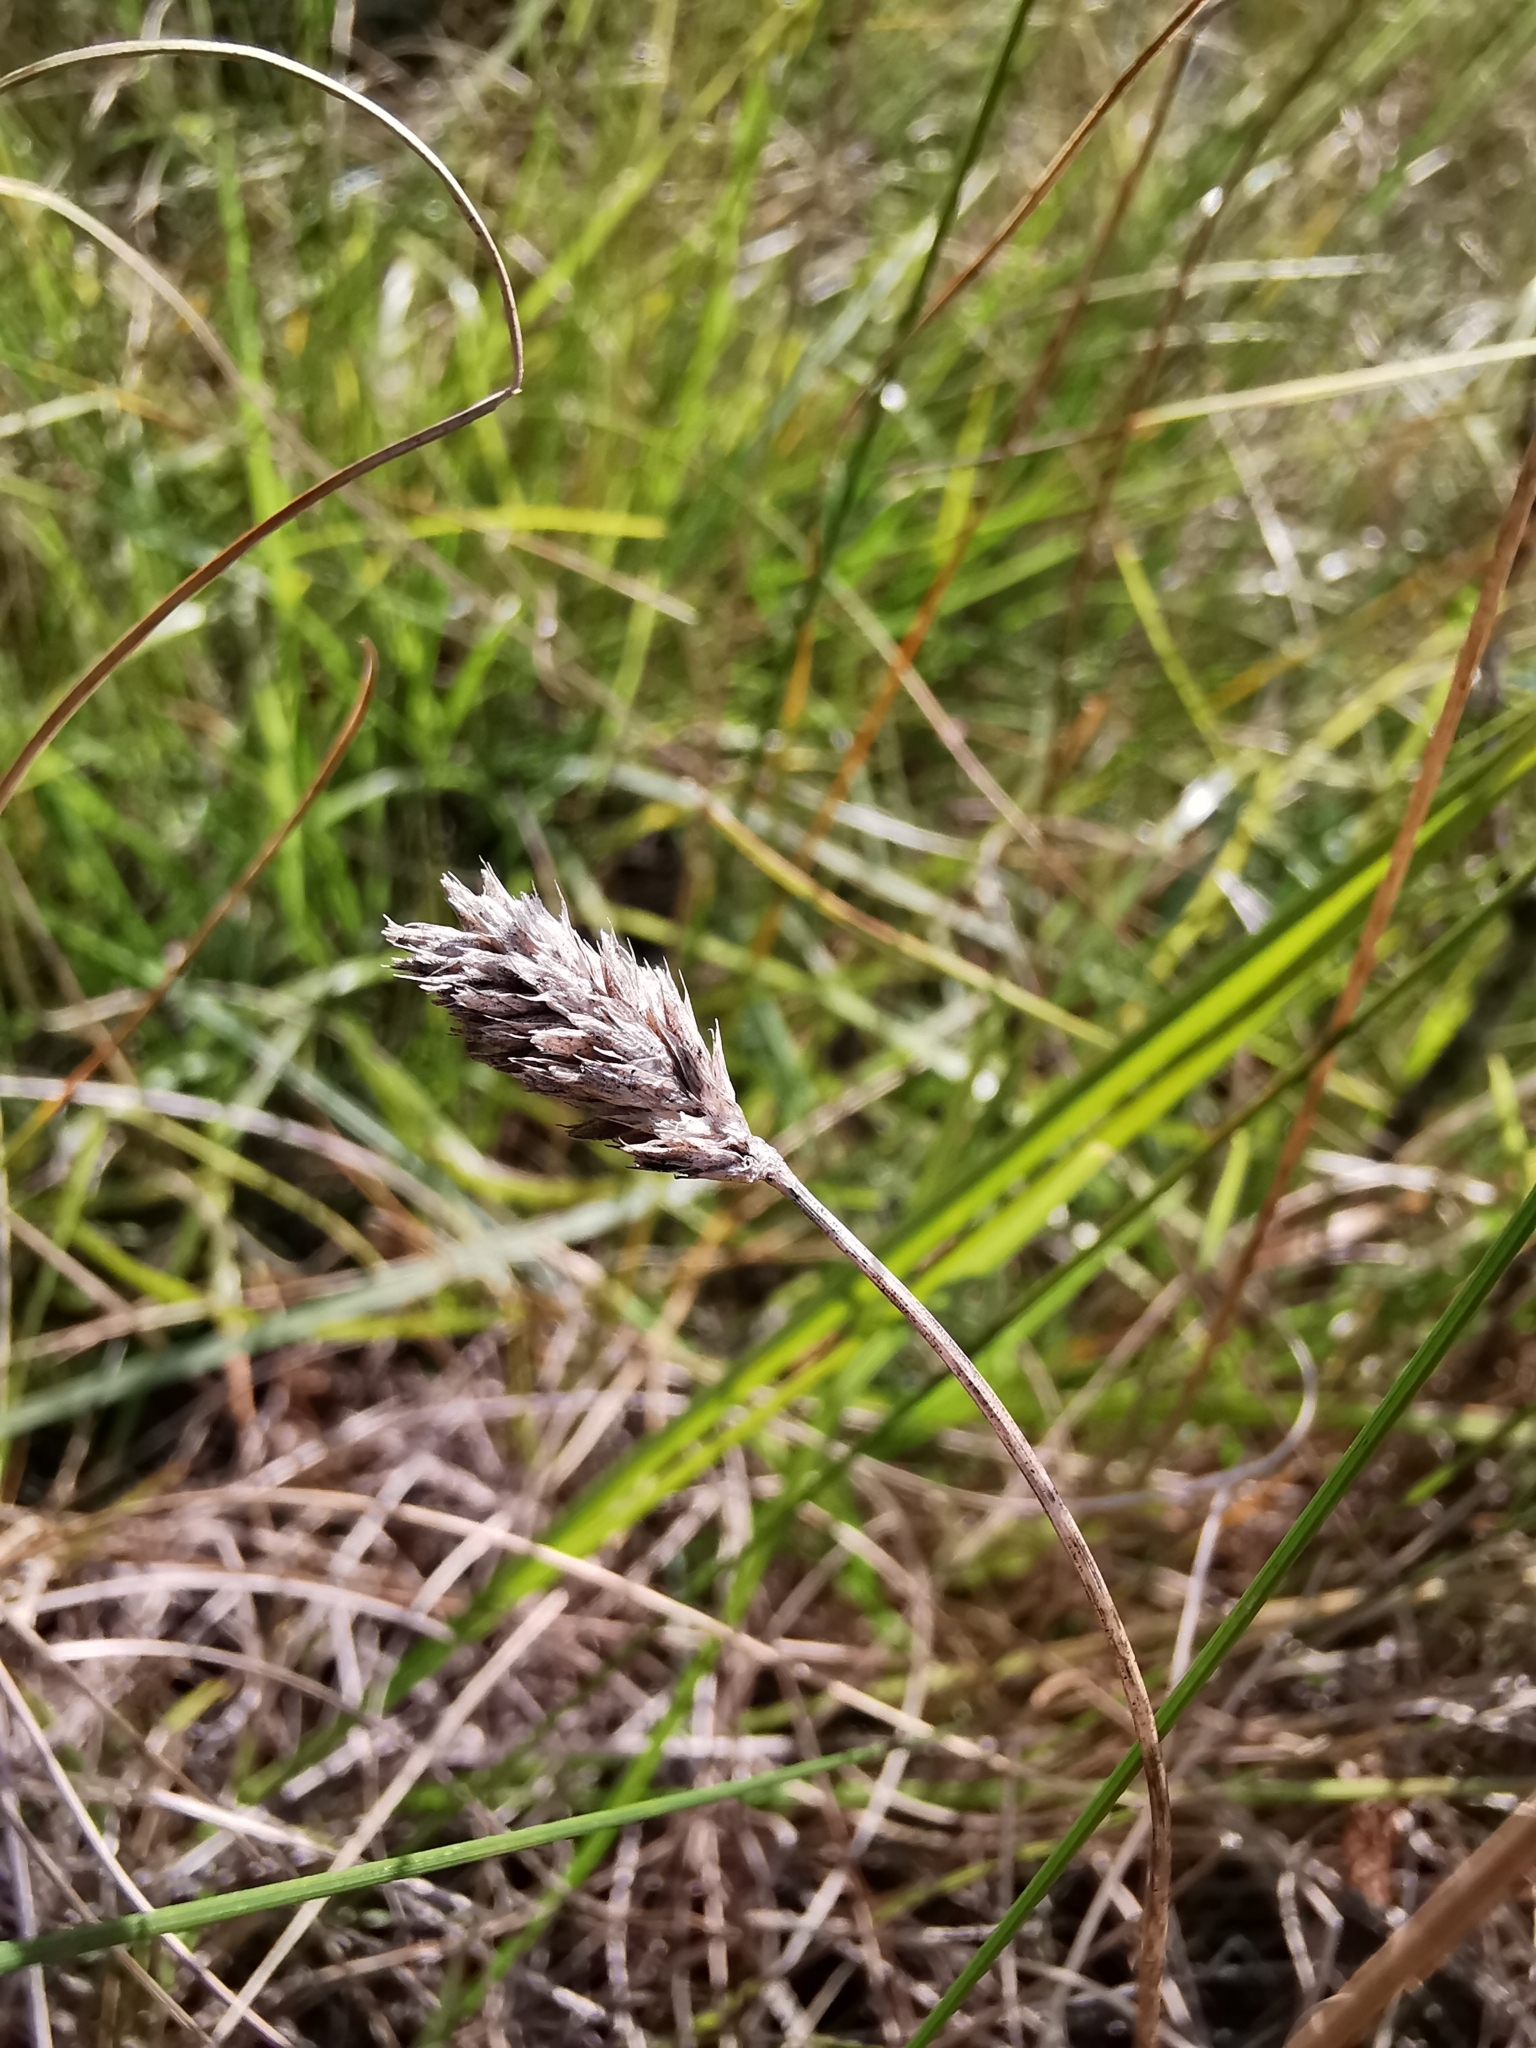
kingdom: Plantae
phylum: Tracheophyta
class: Liliopsida
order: Poales
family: Poaceae
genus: Sesleria
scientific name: Sesleria caerulea
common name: Blue moor-grass
